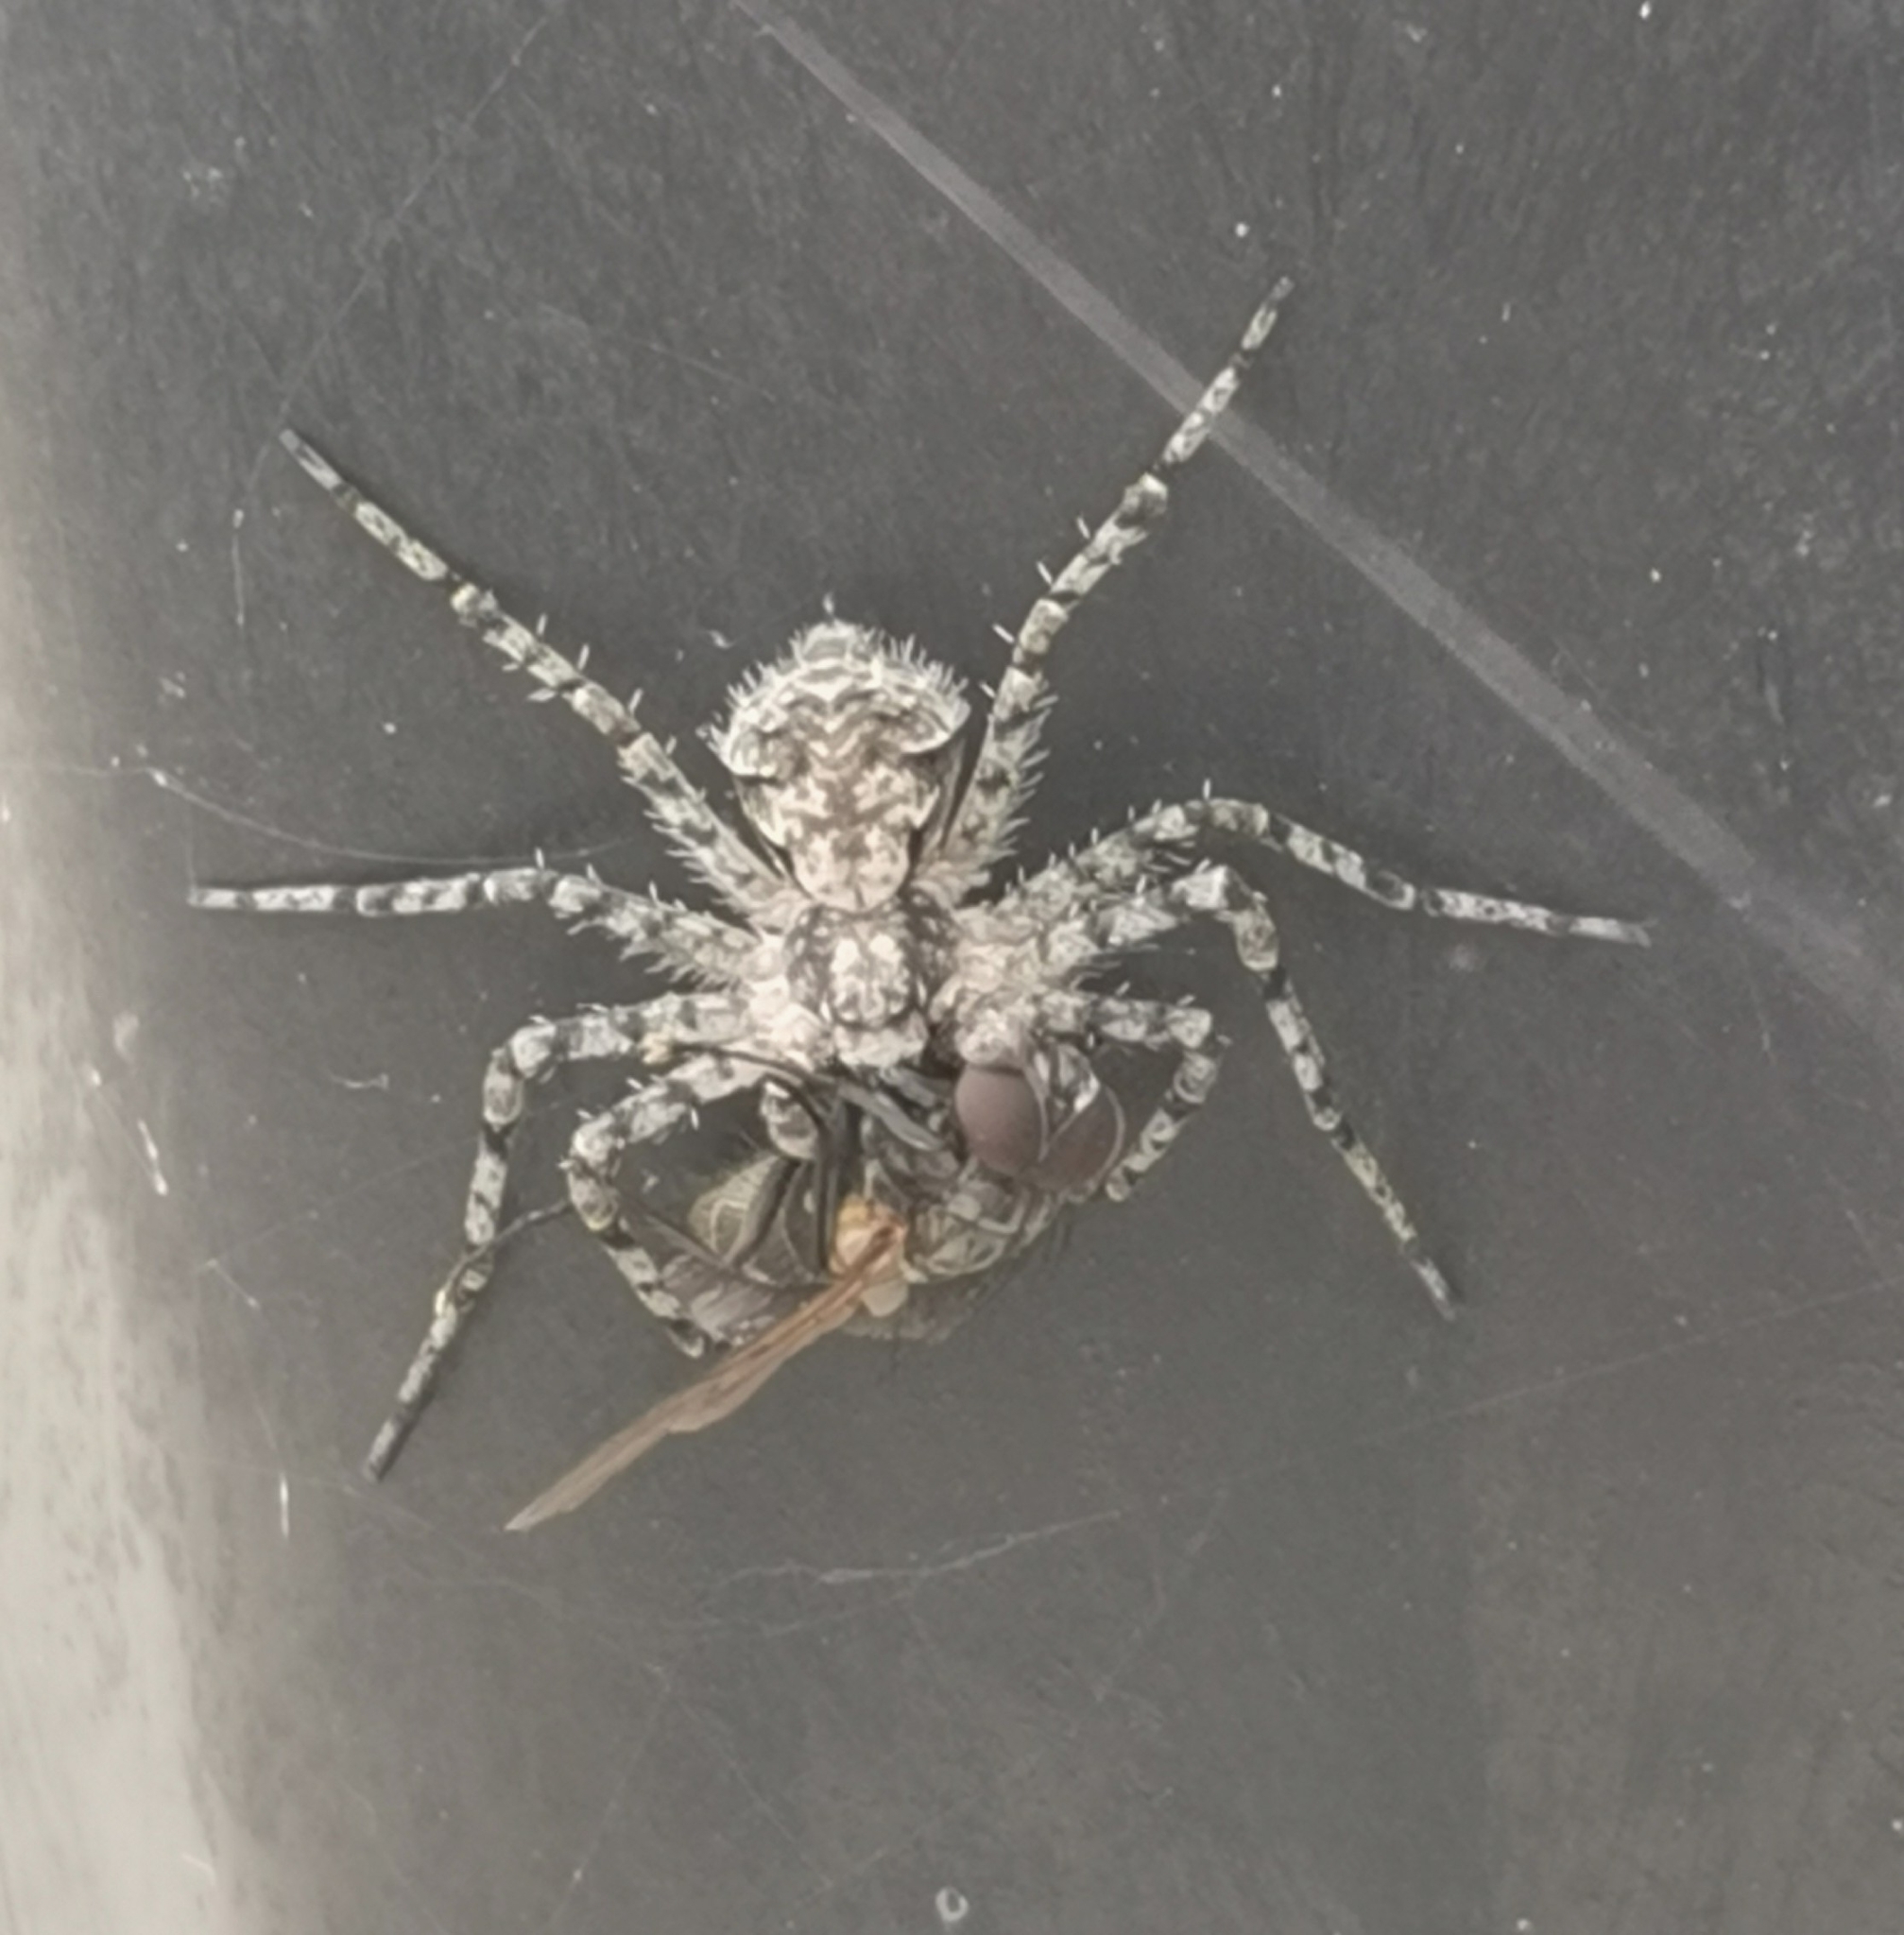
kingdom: Animalia
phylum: Arthropoda
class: Arachnida
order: Araneae
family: Philodromidae
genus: Philodromus
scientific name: Philodromus margaritatus
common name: Lichen running-spider
